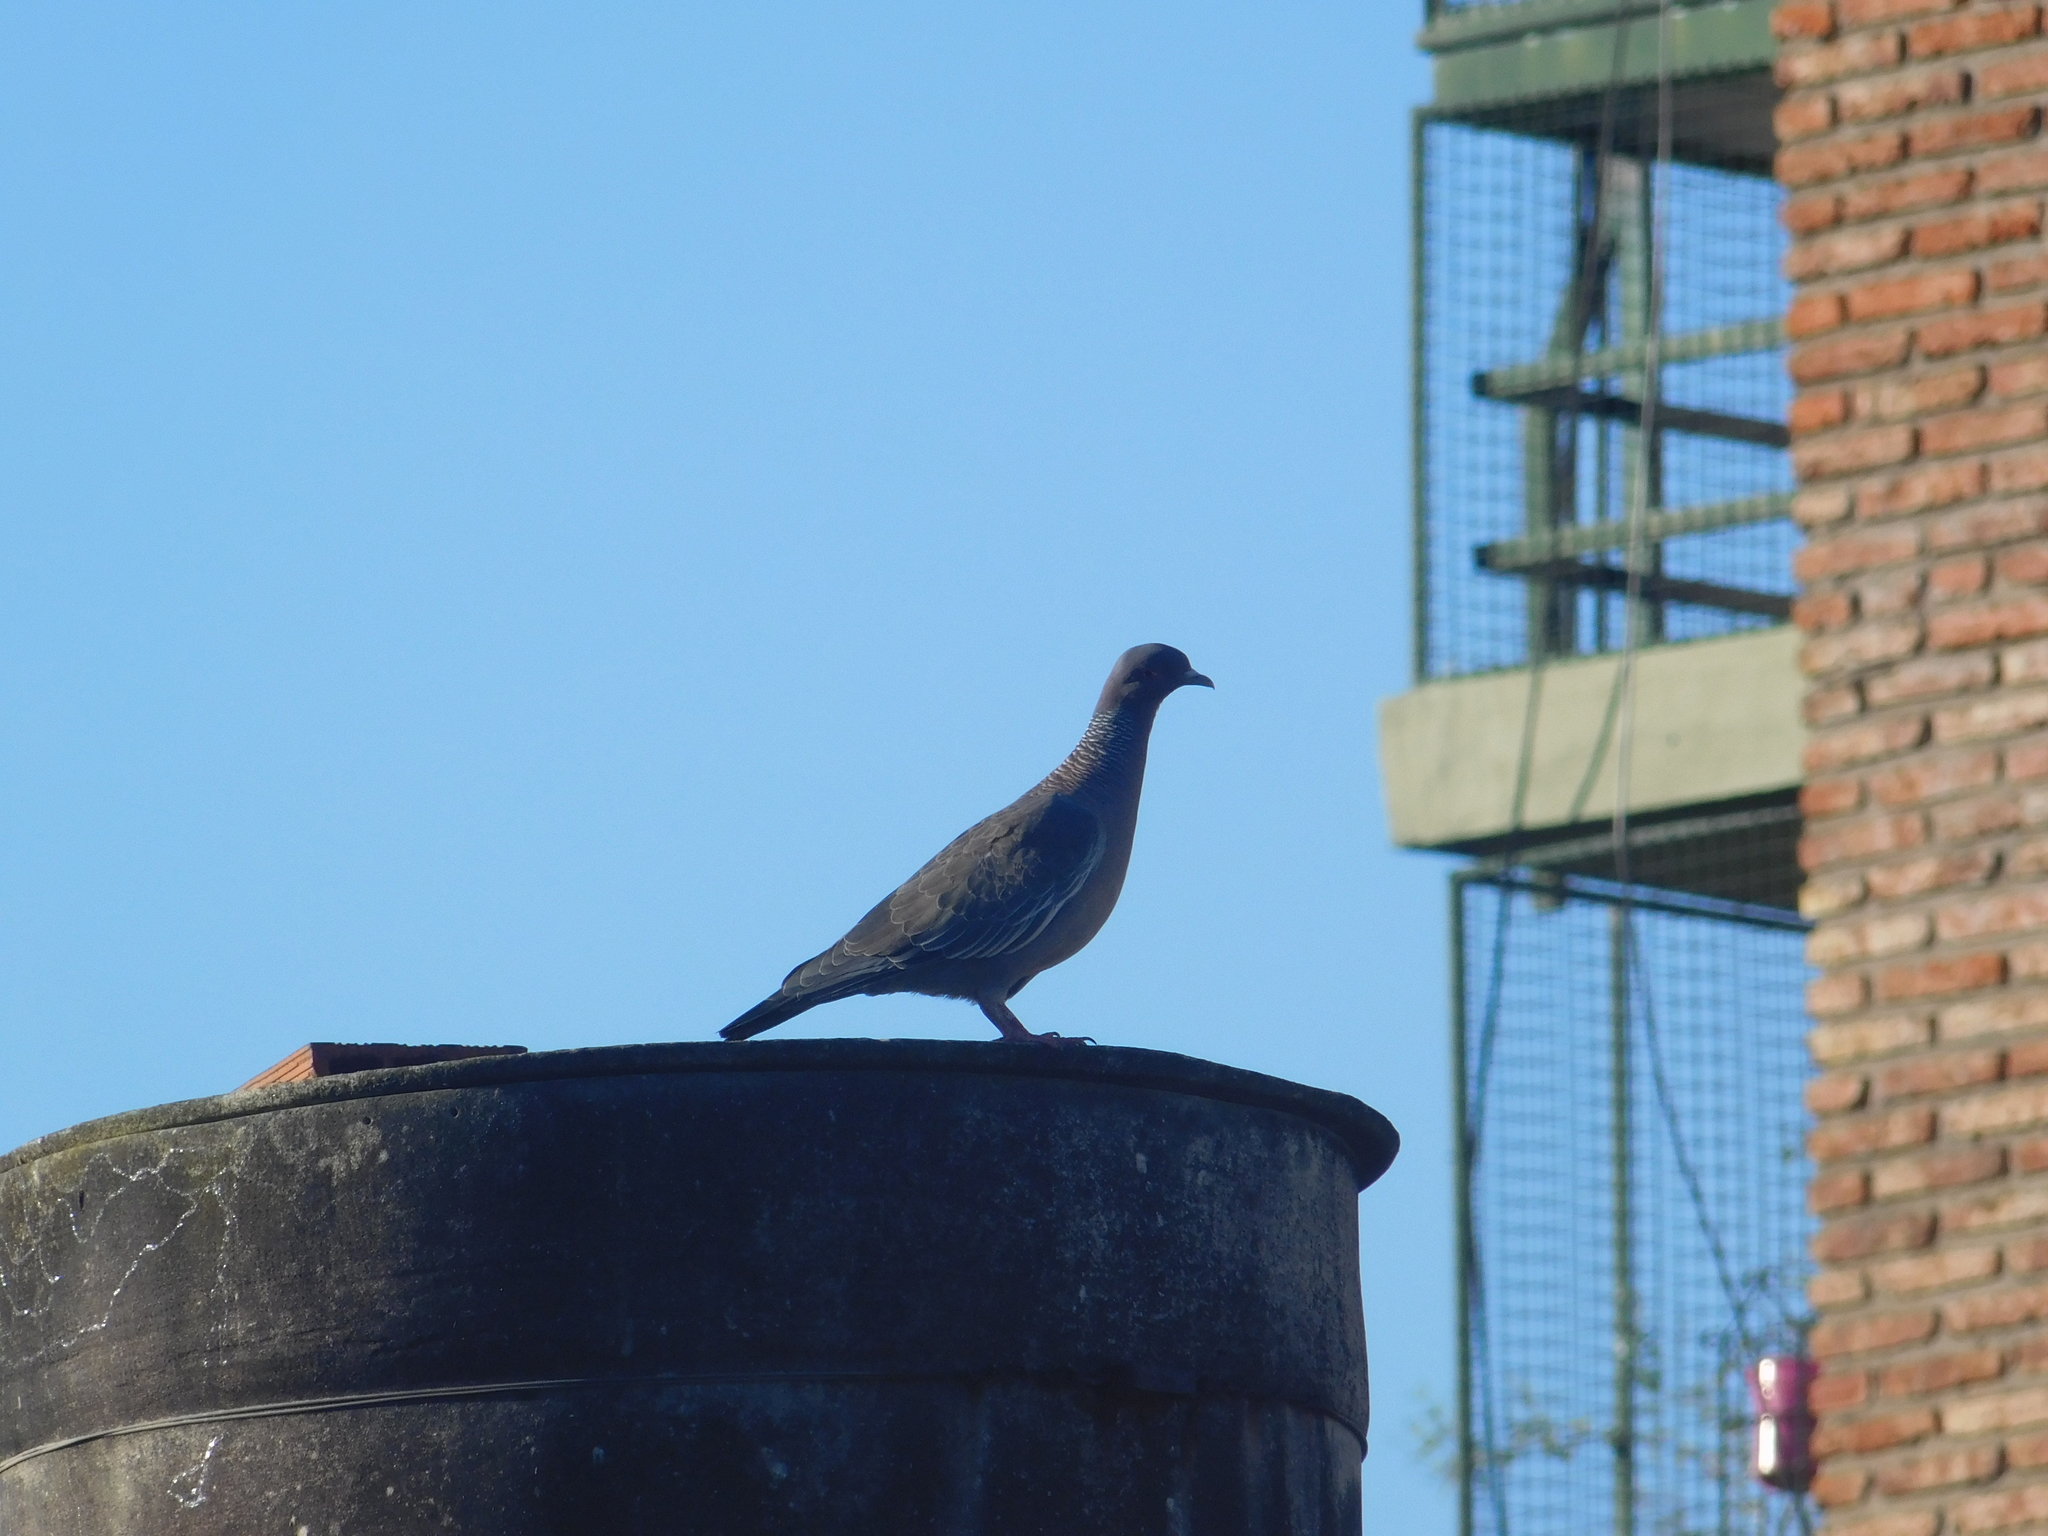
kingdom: Animalia
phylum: Chordata
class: Aves
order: Columbiformes
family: Columbidae
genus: Patagioenas
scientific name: Patagioenas picazuro
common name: Picazuro pigeon
